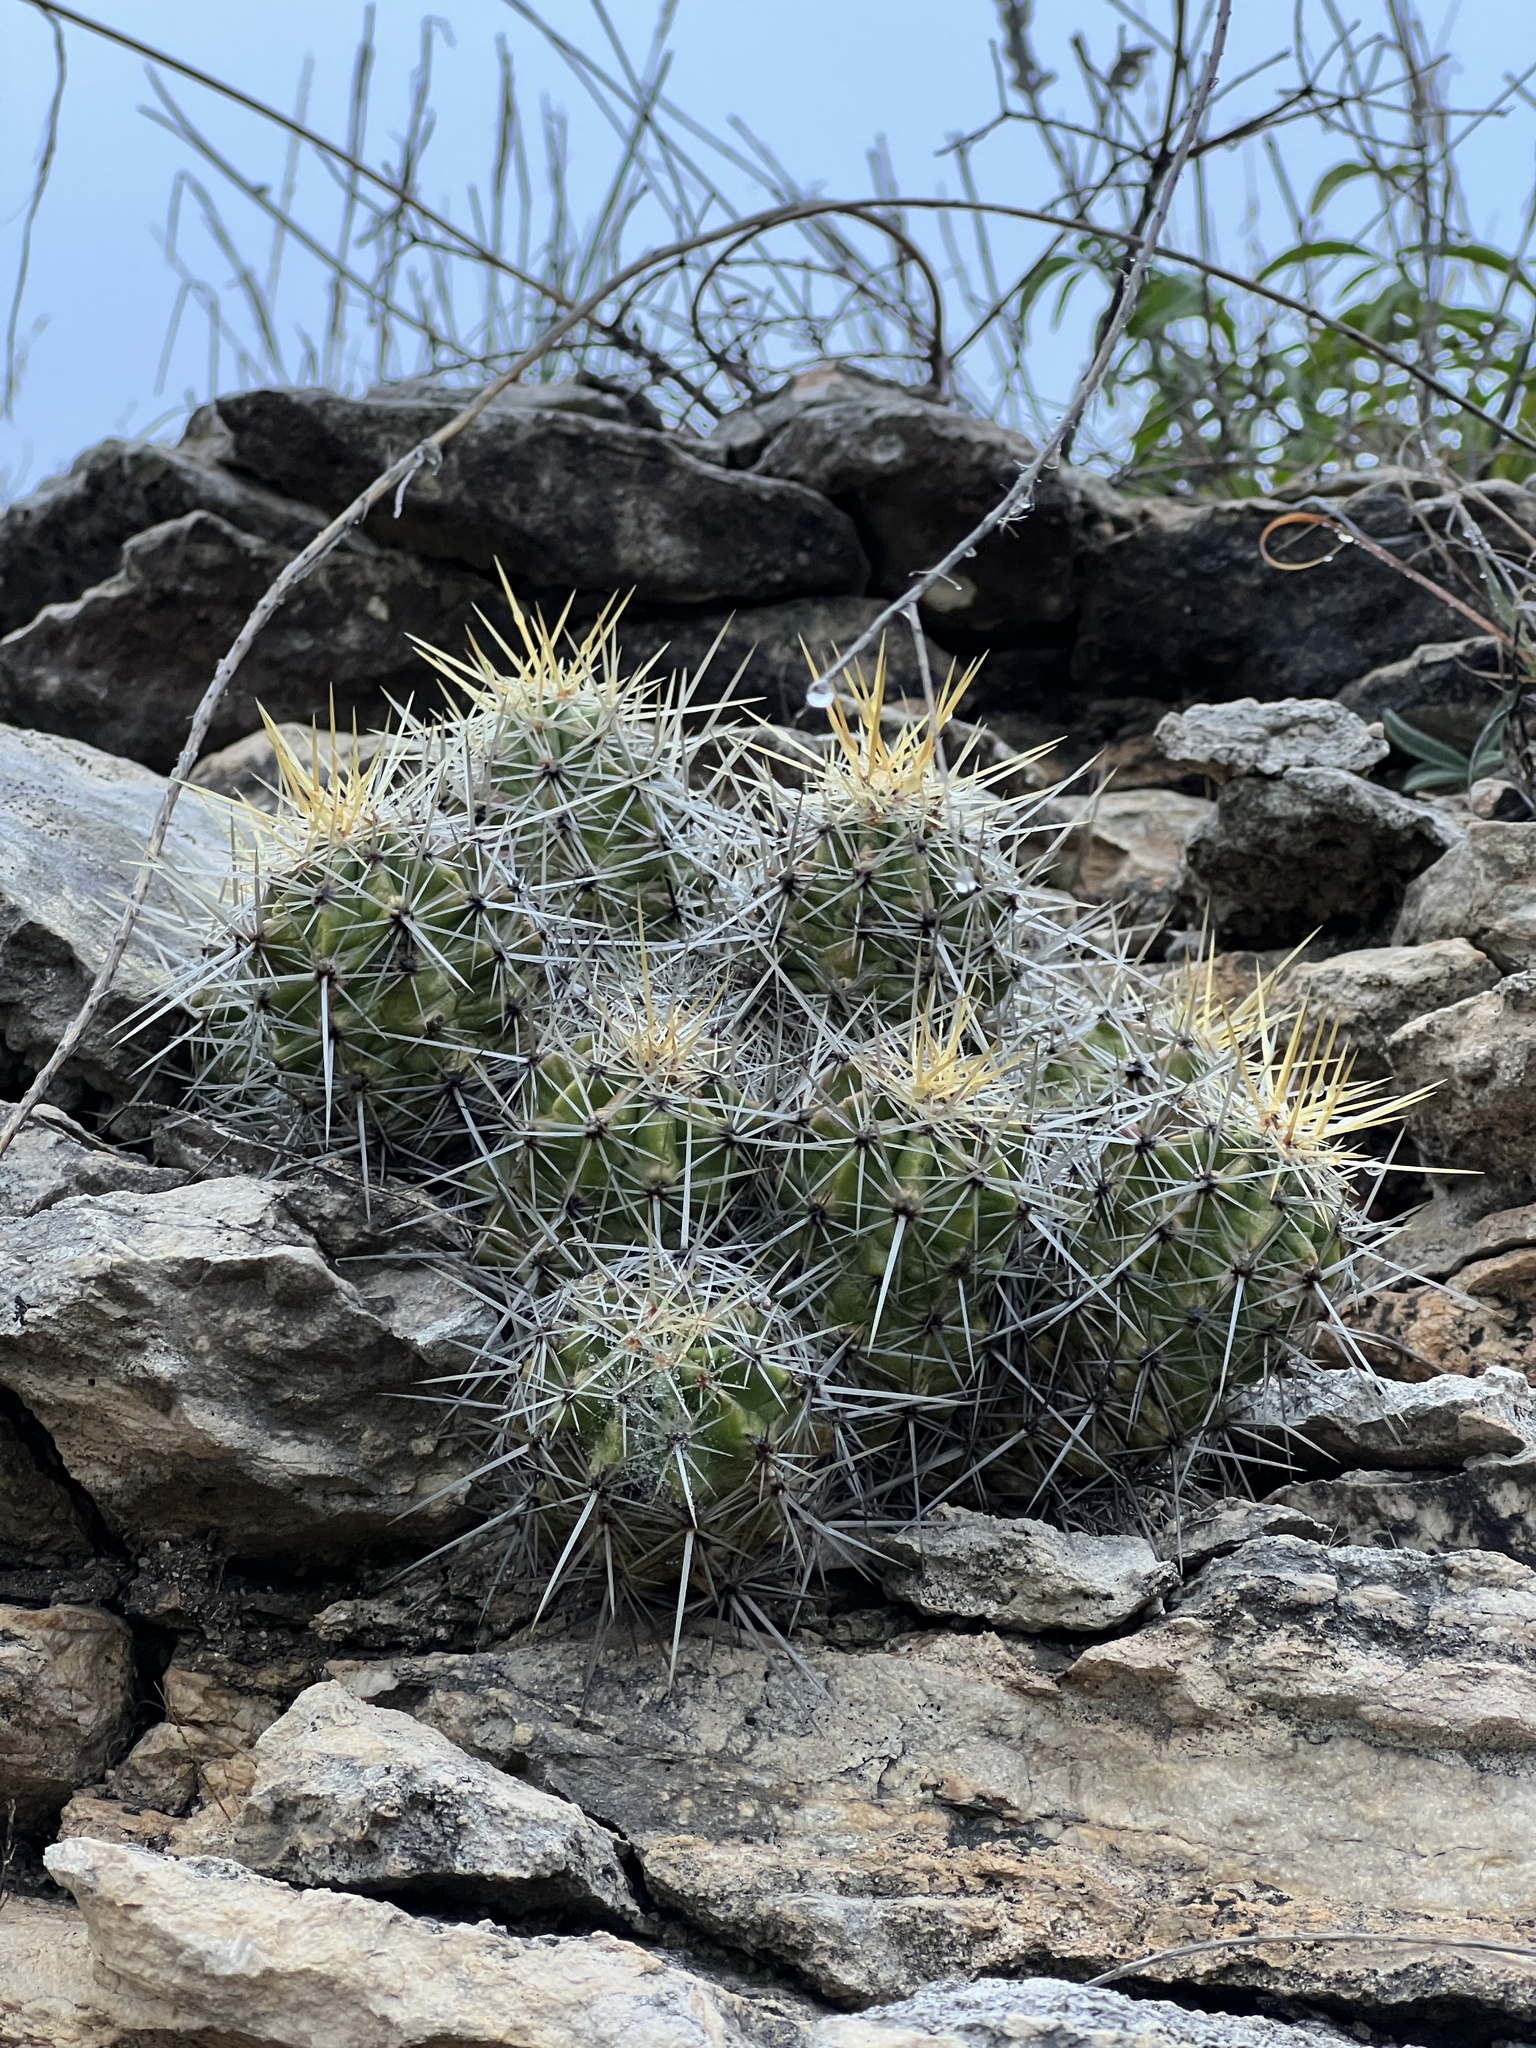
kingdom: Plantae
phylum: Tracheophyta
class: Magnoliopsida
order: Caryophyllales
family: Cactaceae
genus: Echinocereus
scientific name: Echinocereus enneacanthus
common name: Pitaya
